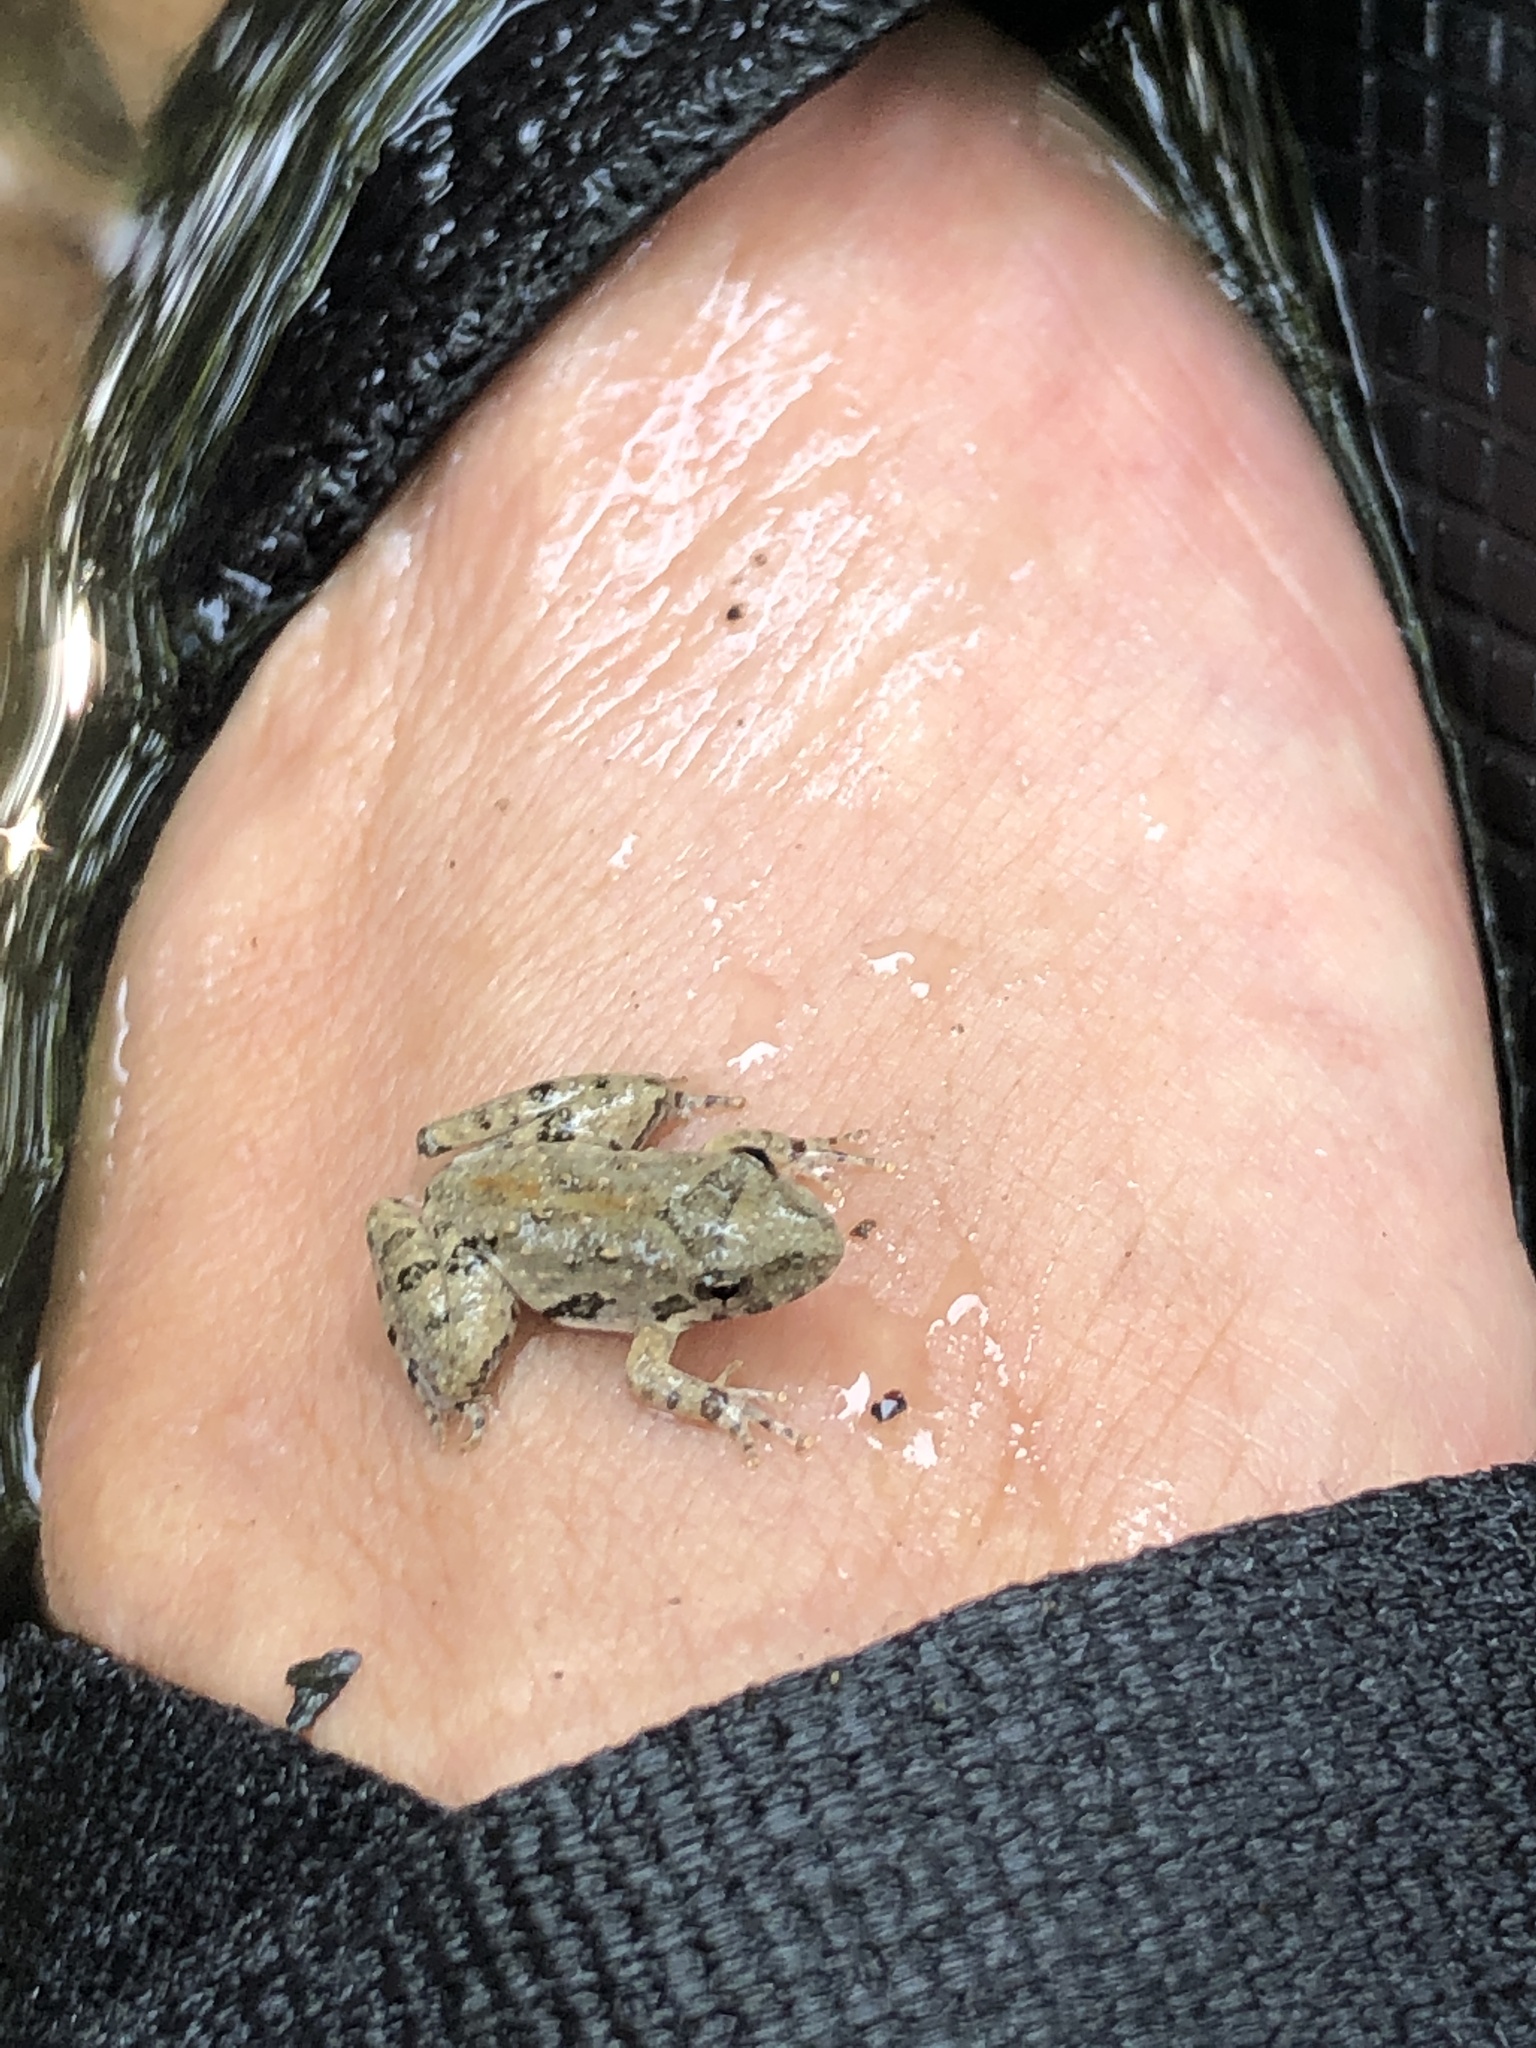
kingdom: Animalia
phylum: Chordata
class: Amphibia
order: Anura
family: Hylidae
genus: Acris
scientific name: Acris blanchardi
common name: Blanchard's cricket frog
